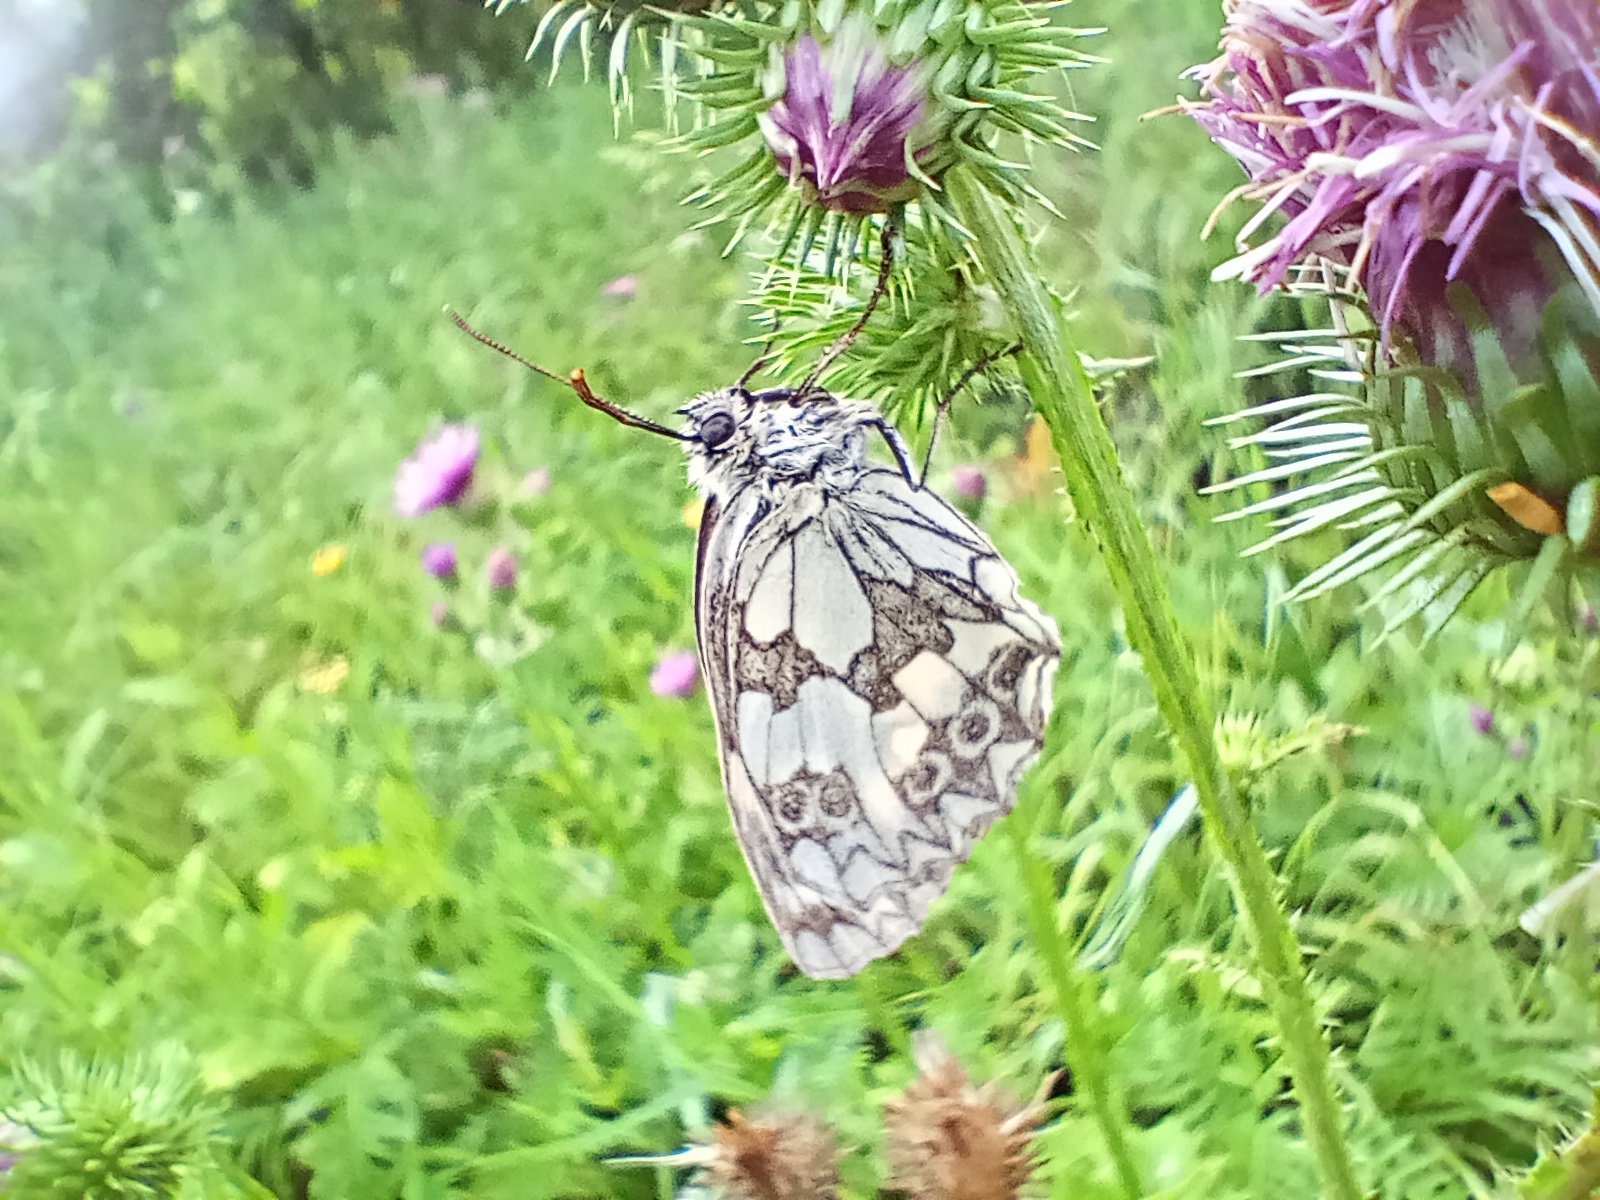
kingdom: Animalia
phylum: Arthropoda
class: Insecta
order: Lepidoptera
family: Nymphalidae
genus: Melanargia
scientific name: Melanargia galathea
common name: Marbled white
